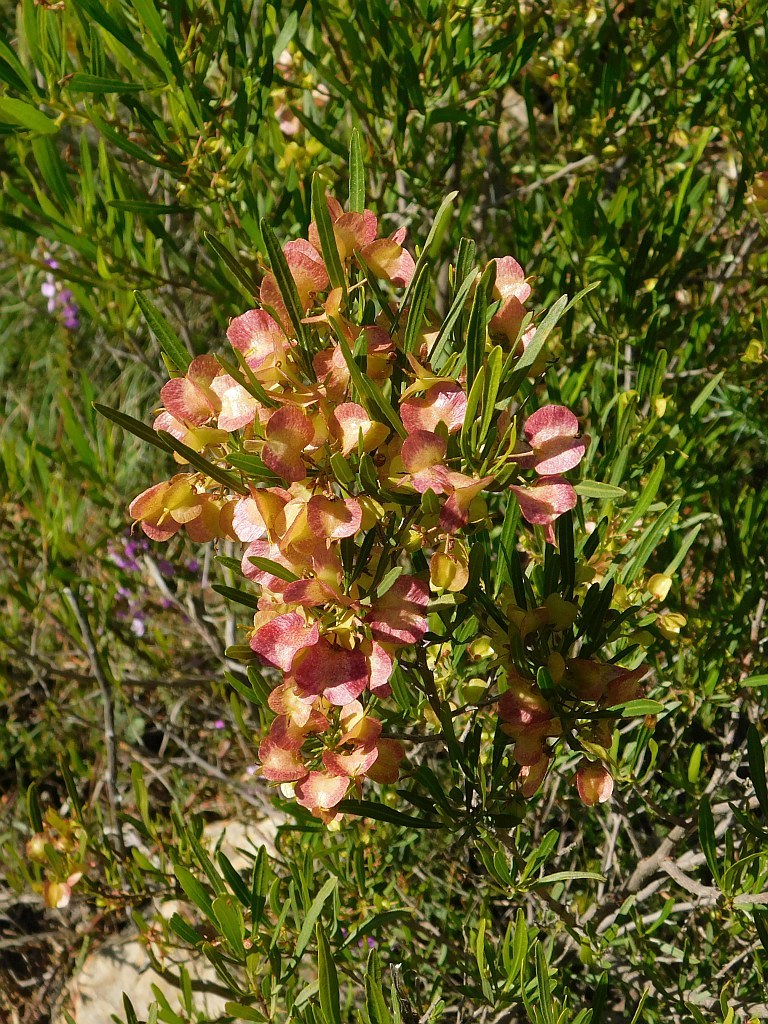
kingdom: Plantae
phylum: Tracheophyta
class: Magnoliopsida
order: Sapindales
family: Sapindaceae
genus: Dodonaea
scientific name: Dodonaea viscosa
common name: Hopbush
